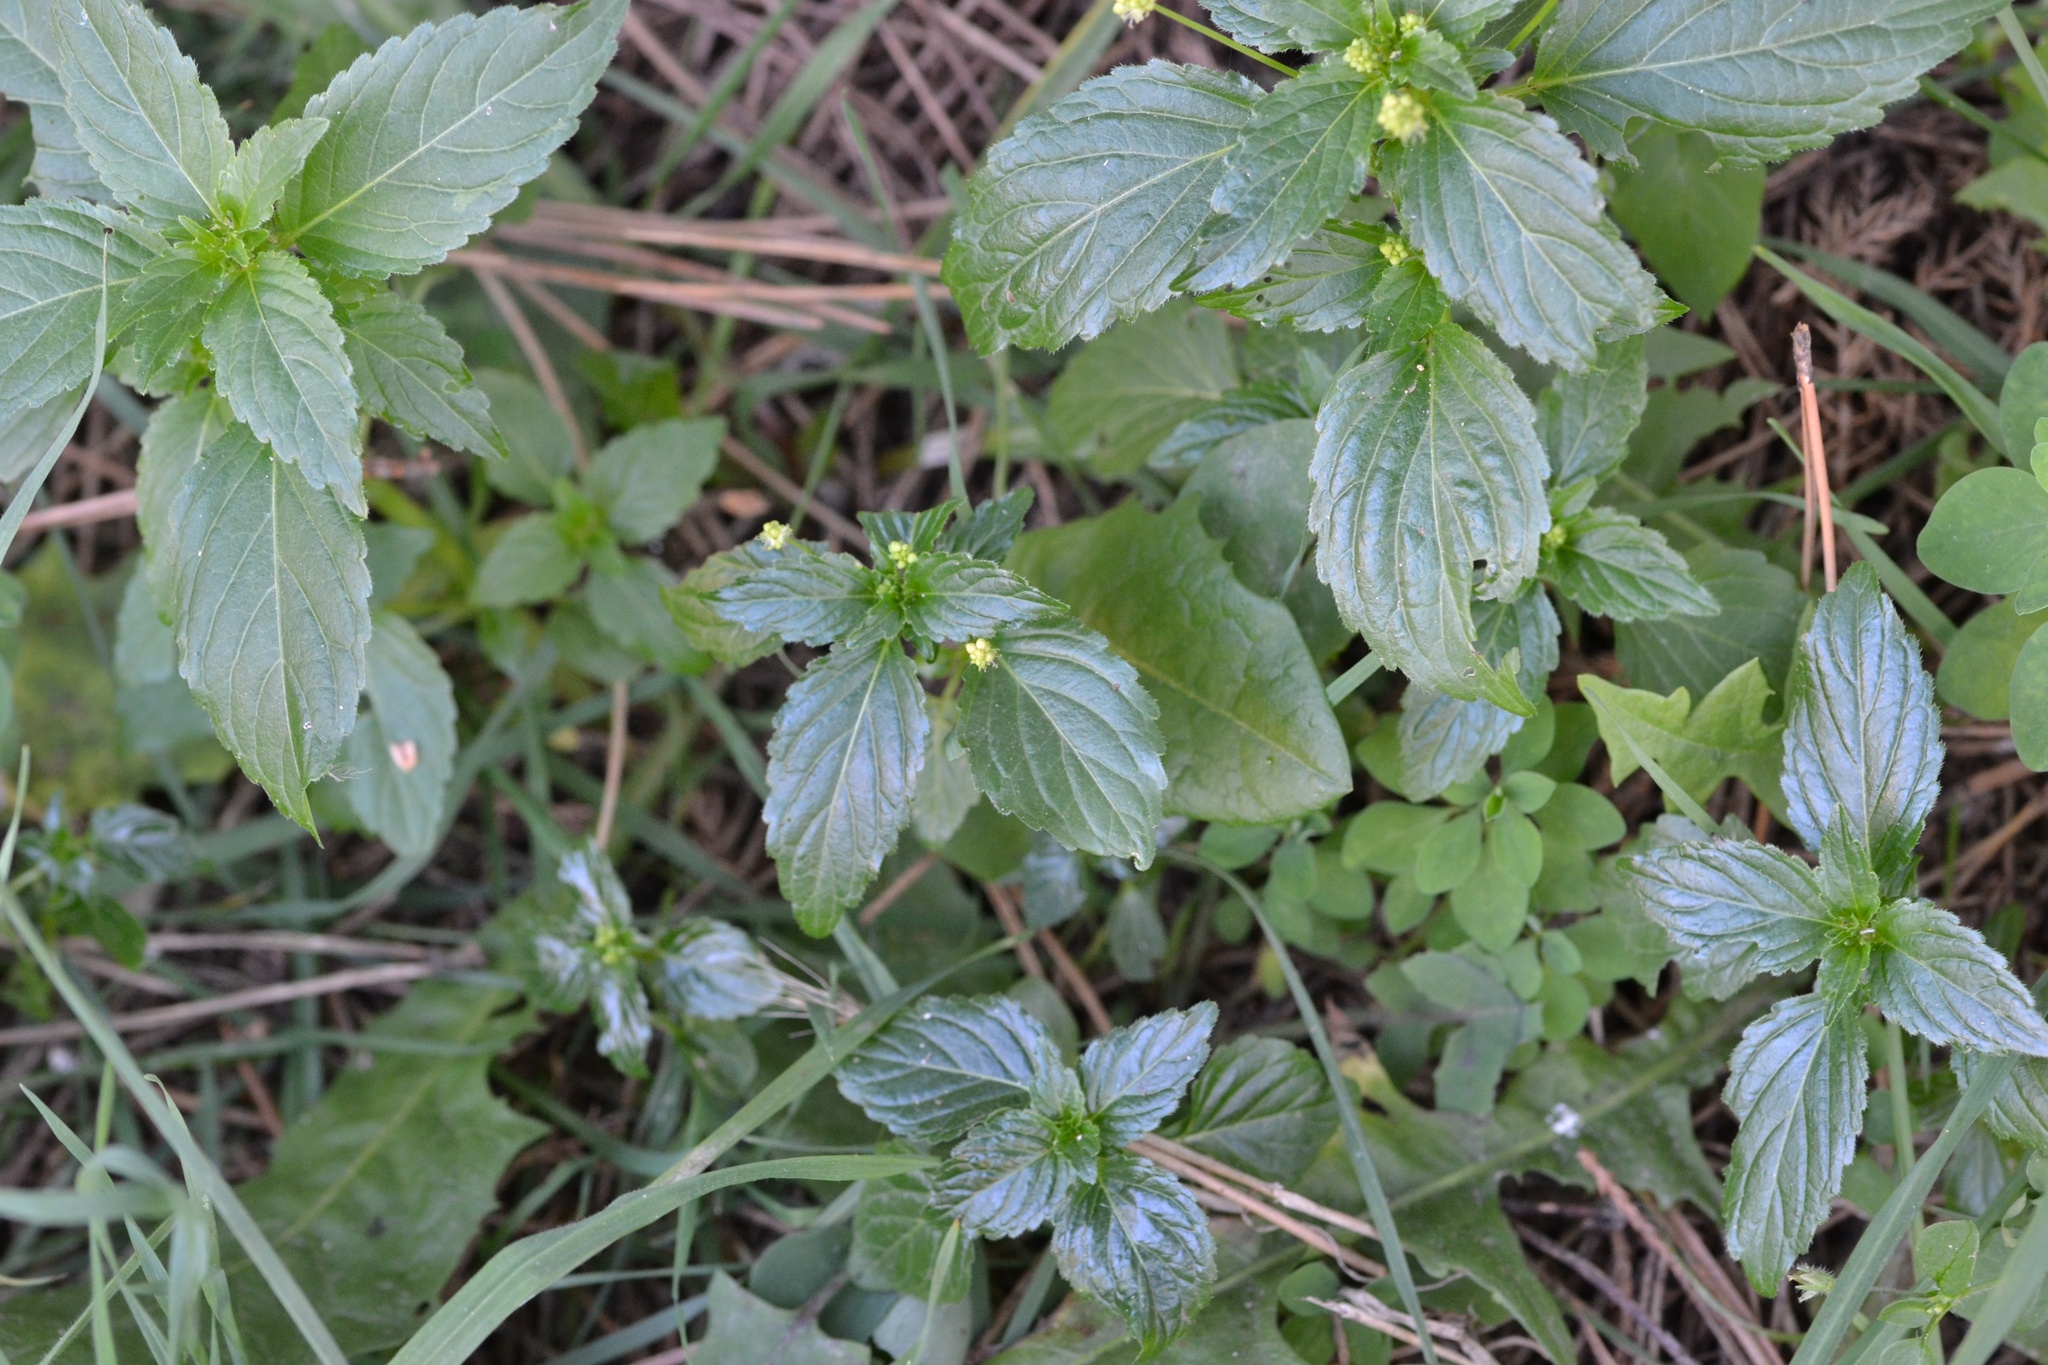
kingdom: Plantae
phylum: Tracheophyta
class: Magnoliopsida
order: Malpighiales
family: Euphorbiaceae
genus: Mercurialis
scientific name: Mercurialis annua
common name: Annual mercury
